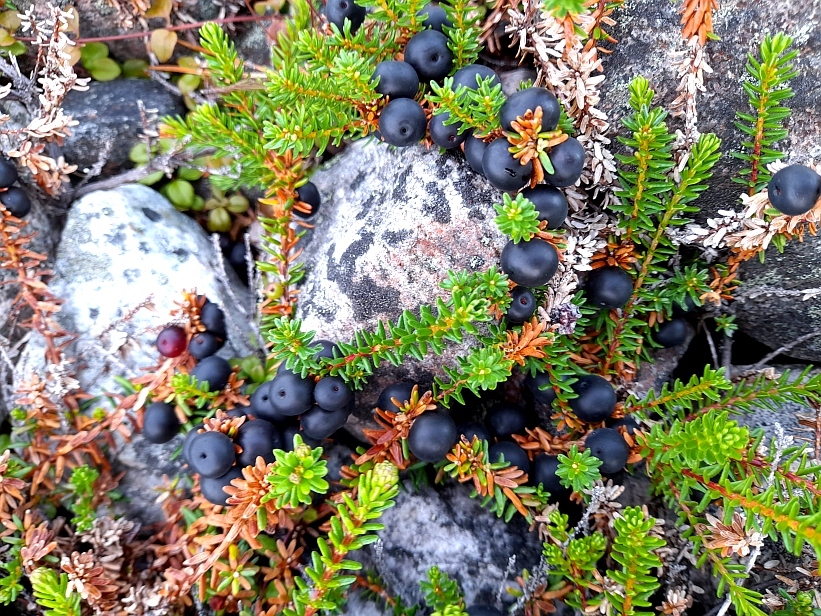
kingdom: Plantae
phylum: Tracheophyta
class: Magnoliopsida
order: Ericales
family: Ericaceae
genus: Empetrum
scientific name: Empetrum nigrum
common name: Black crowberry
